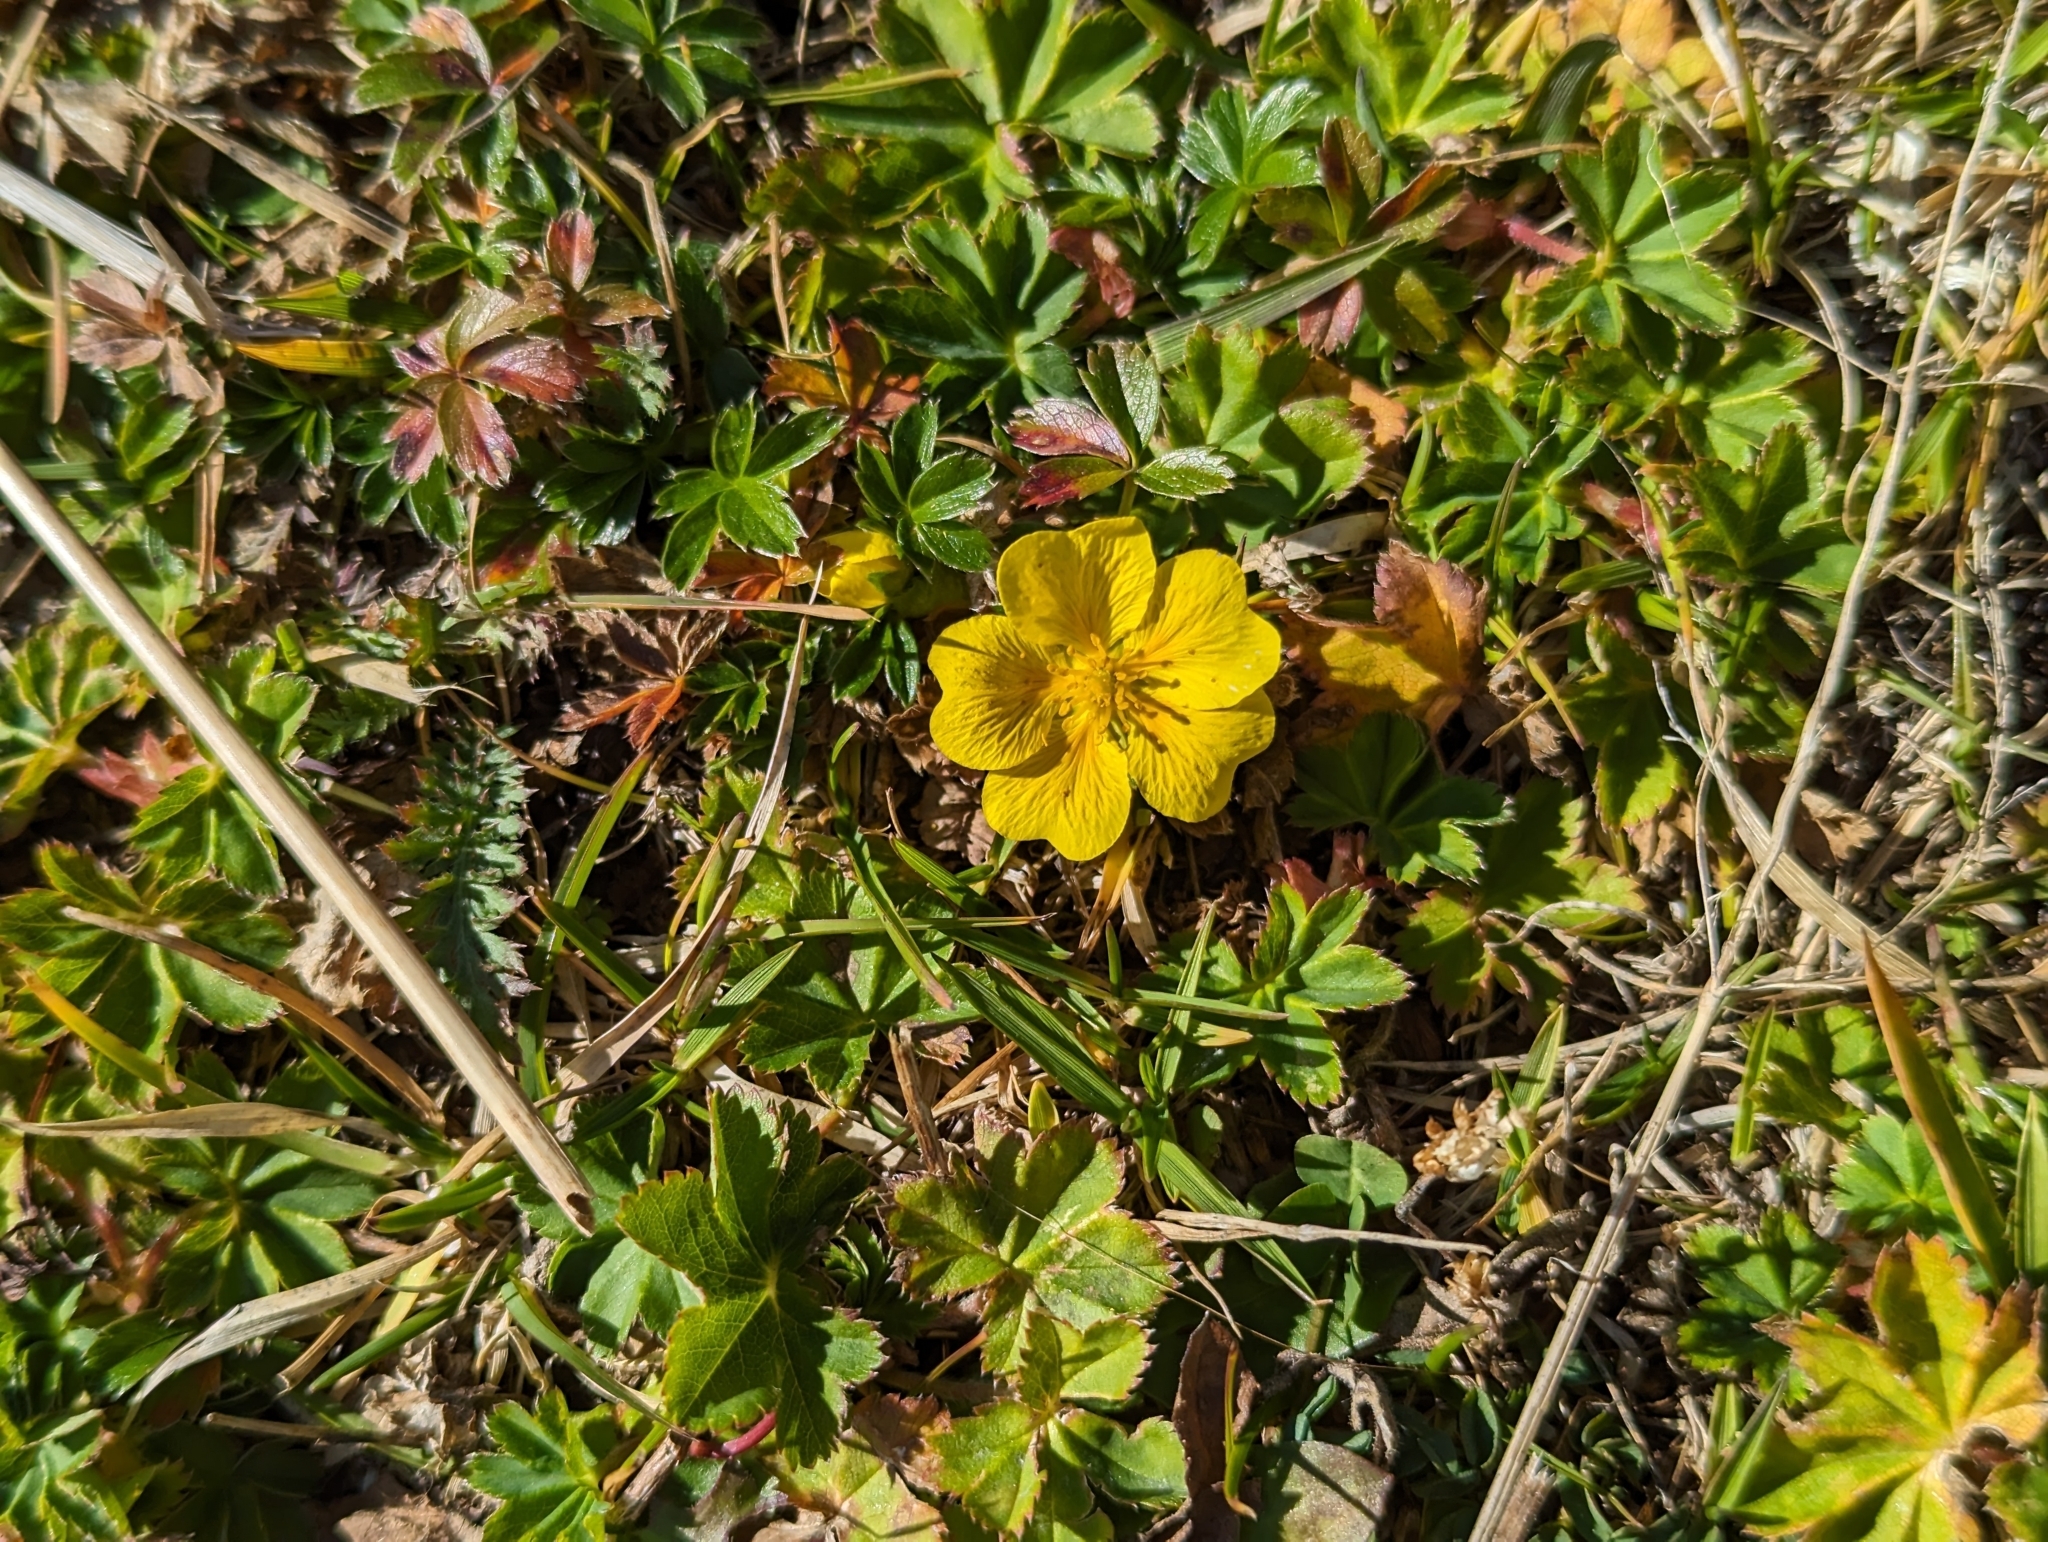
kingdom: Plantae
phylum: Tracheophyta
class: Magnoliopsida
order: Rosales
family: Rosaceae
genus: Potentilla
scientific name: Potentilla aurea
